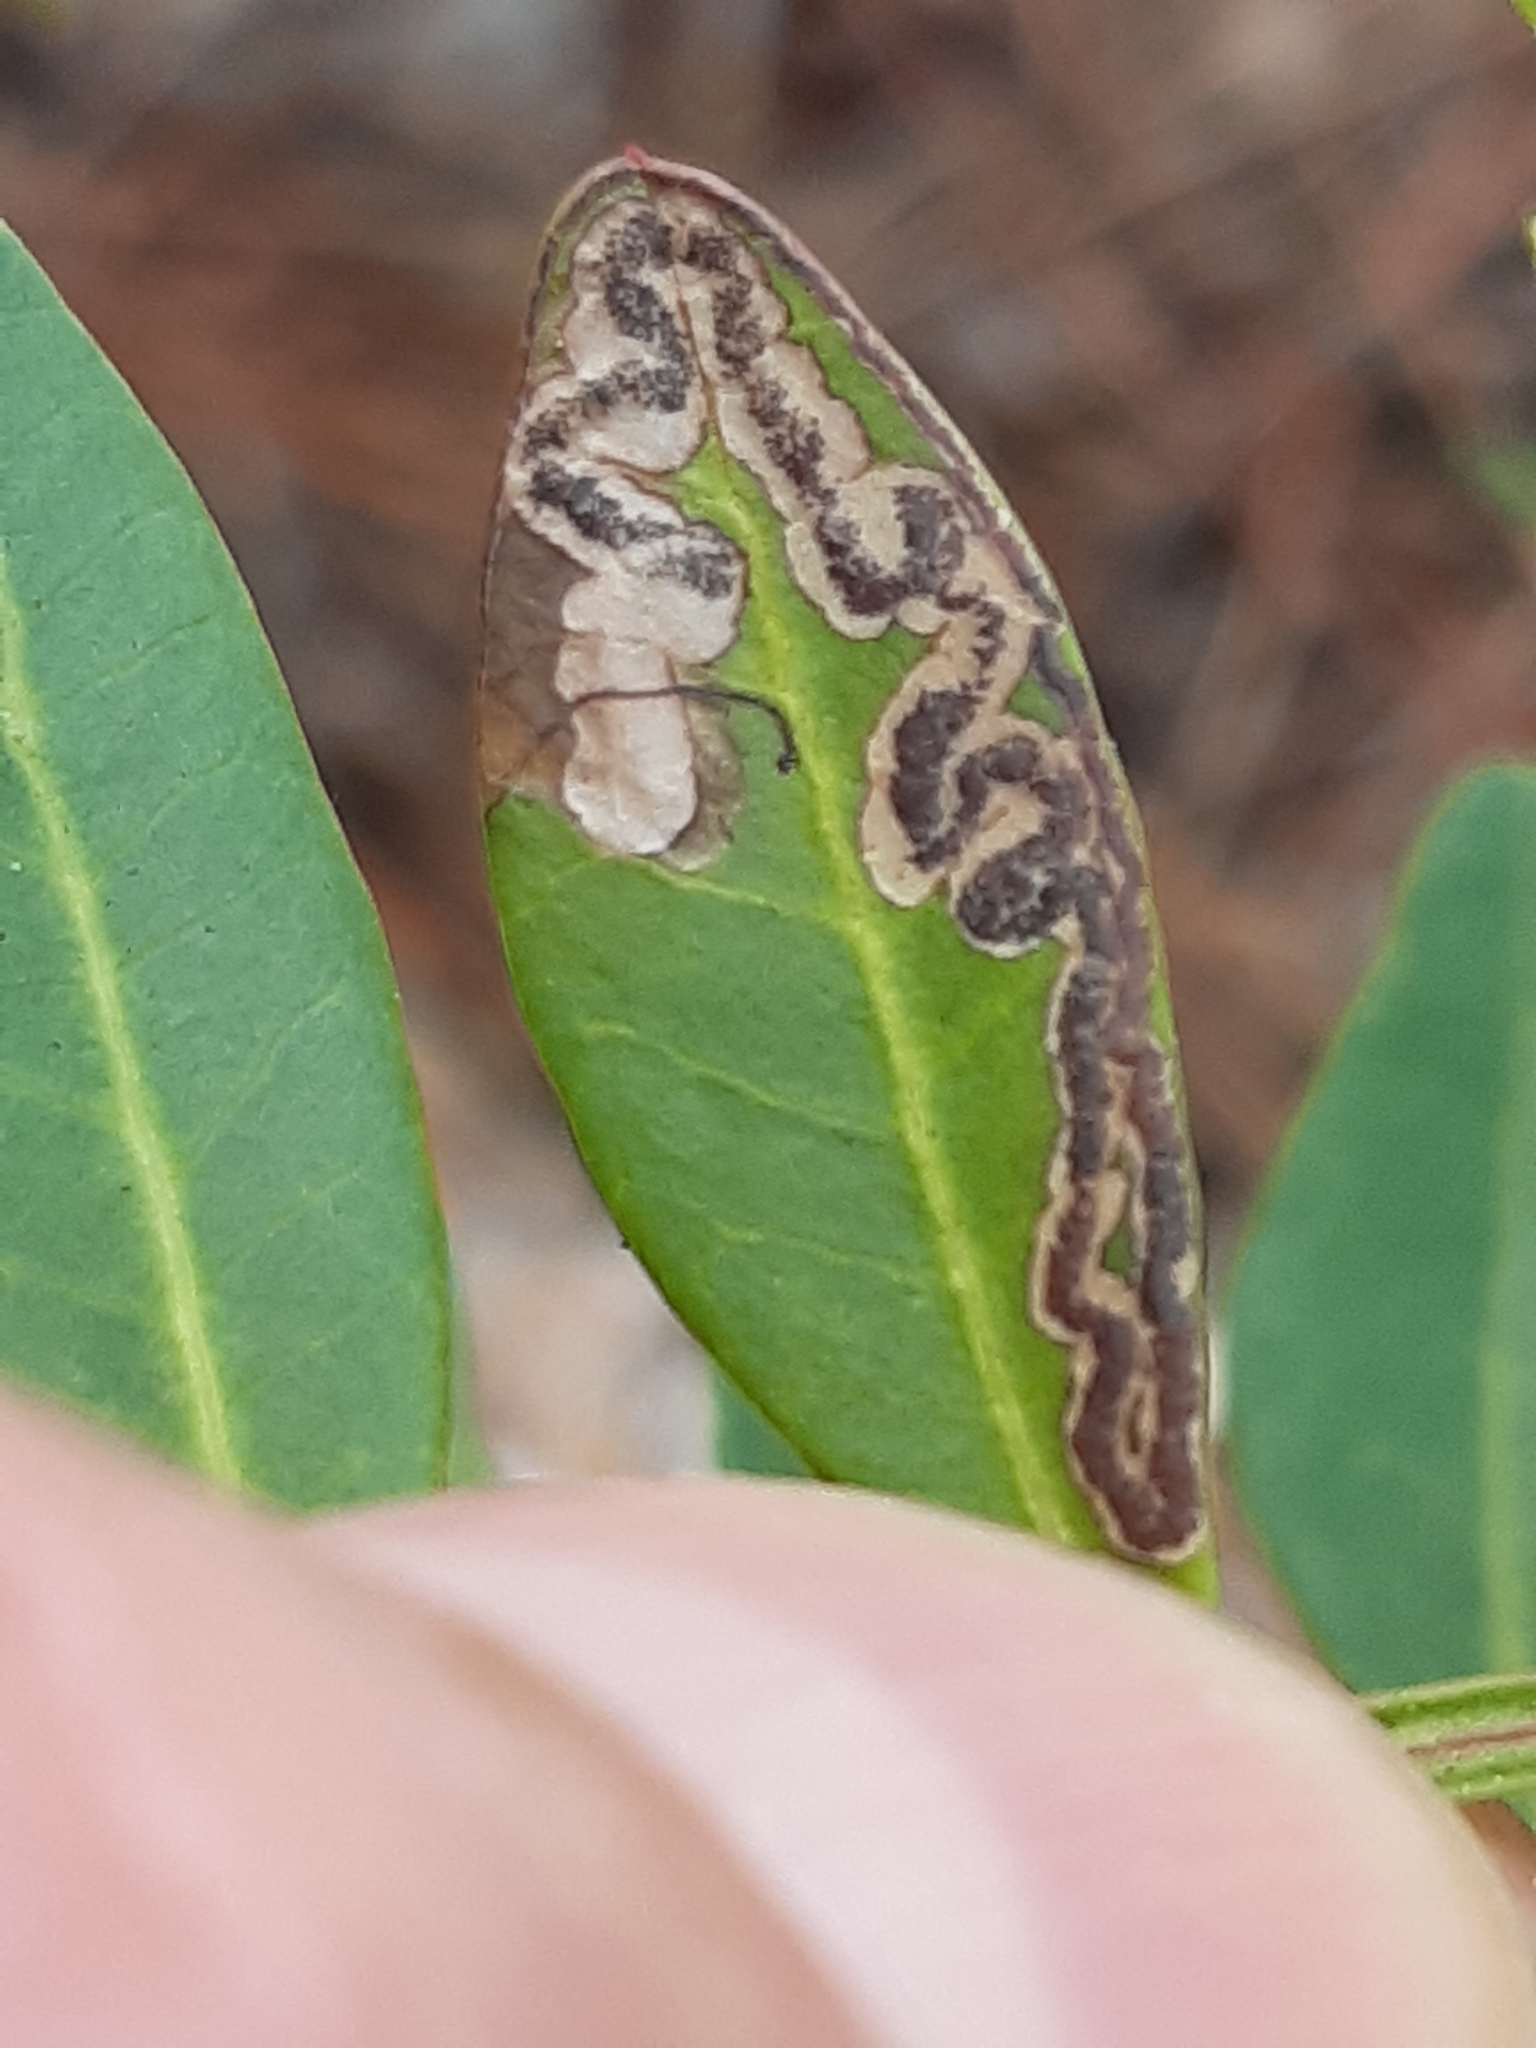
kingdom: Animalia
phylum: Arthropoda
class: Insecta
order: Lepidoptera
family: Nepticulidae
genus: Acalyptris
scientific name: Acalyptris minimella
